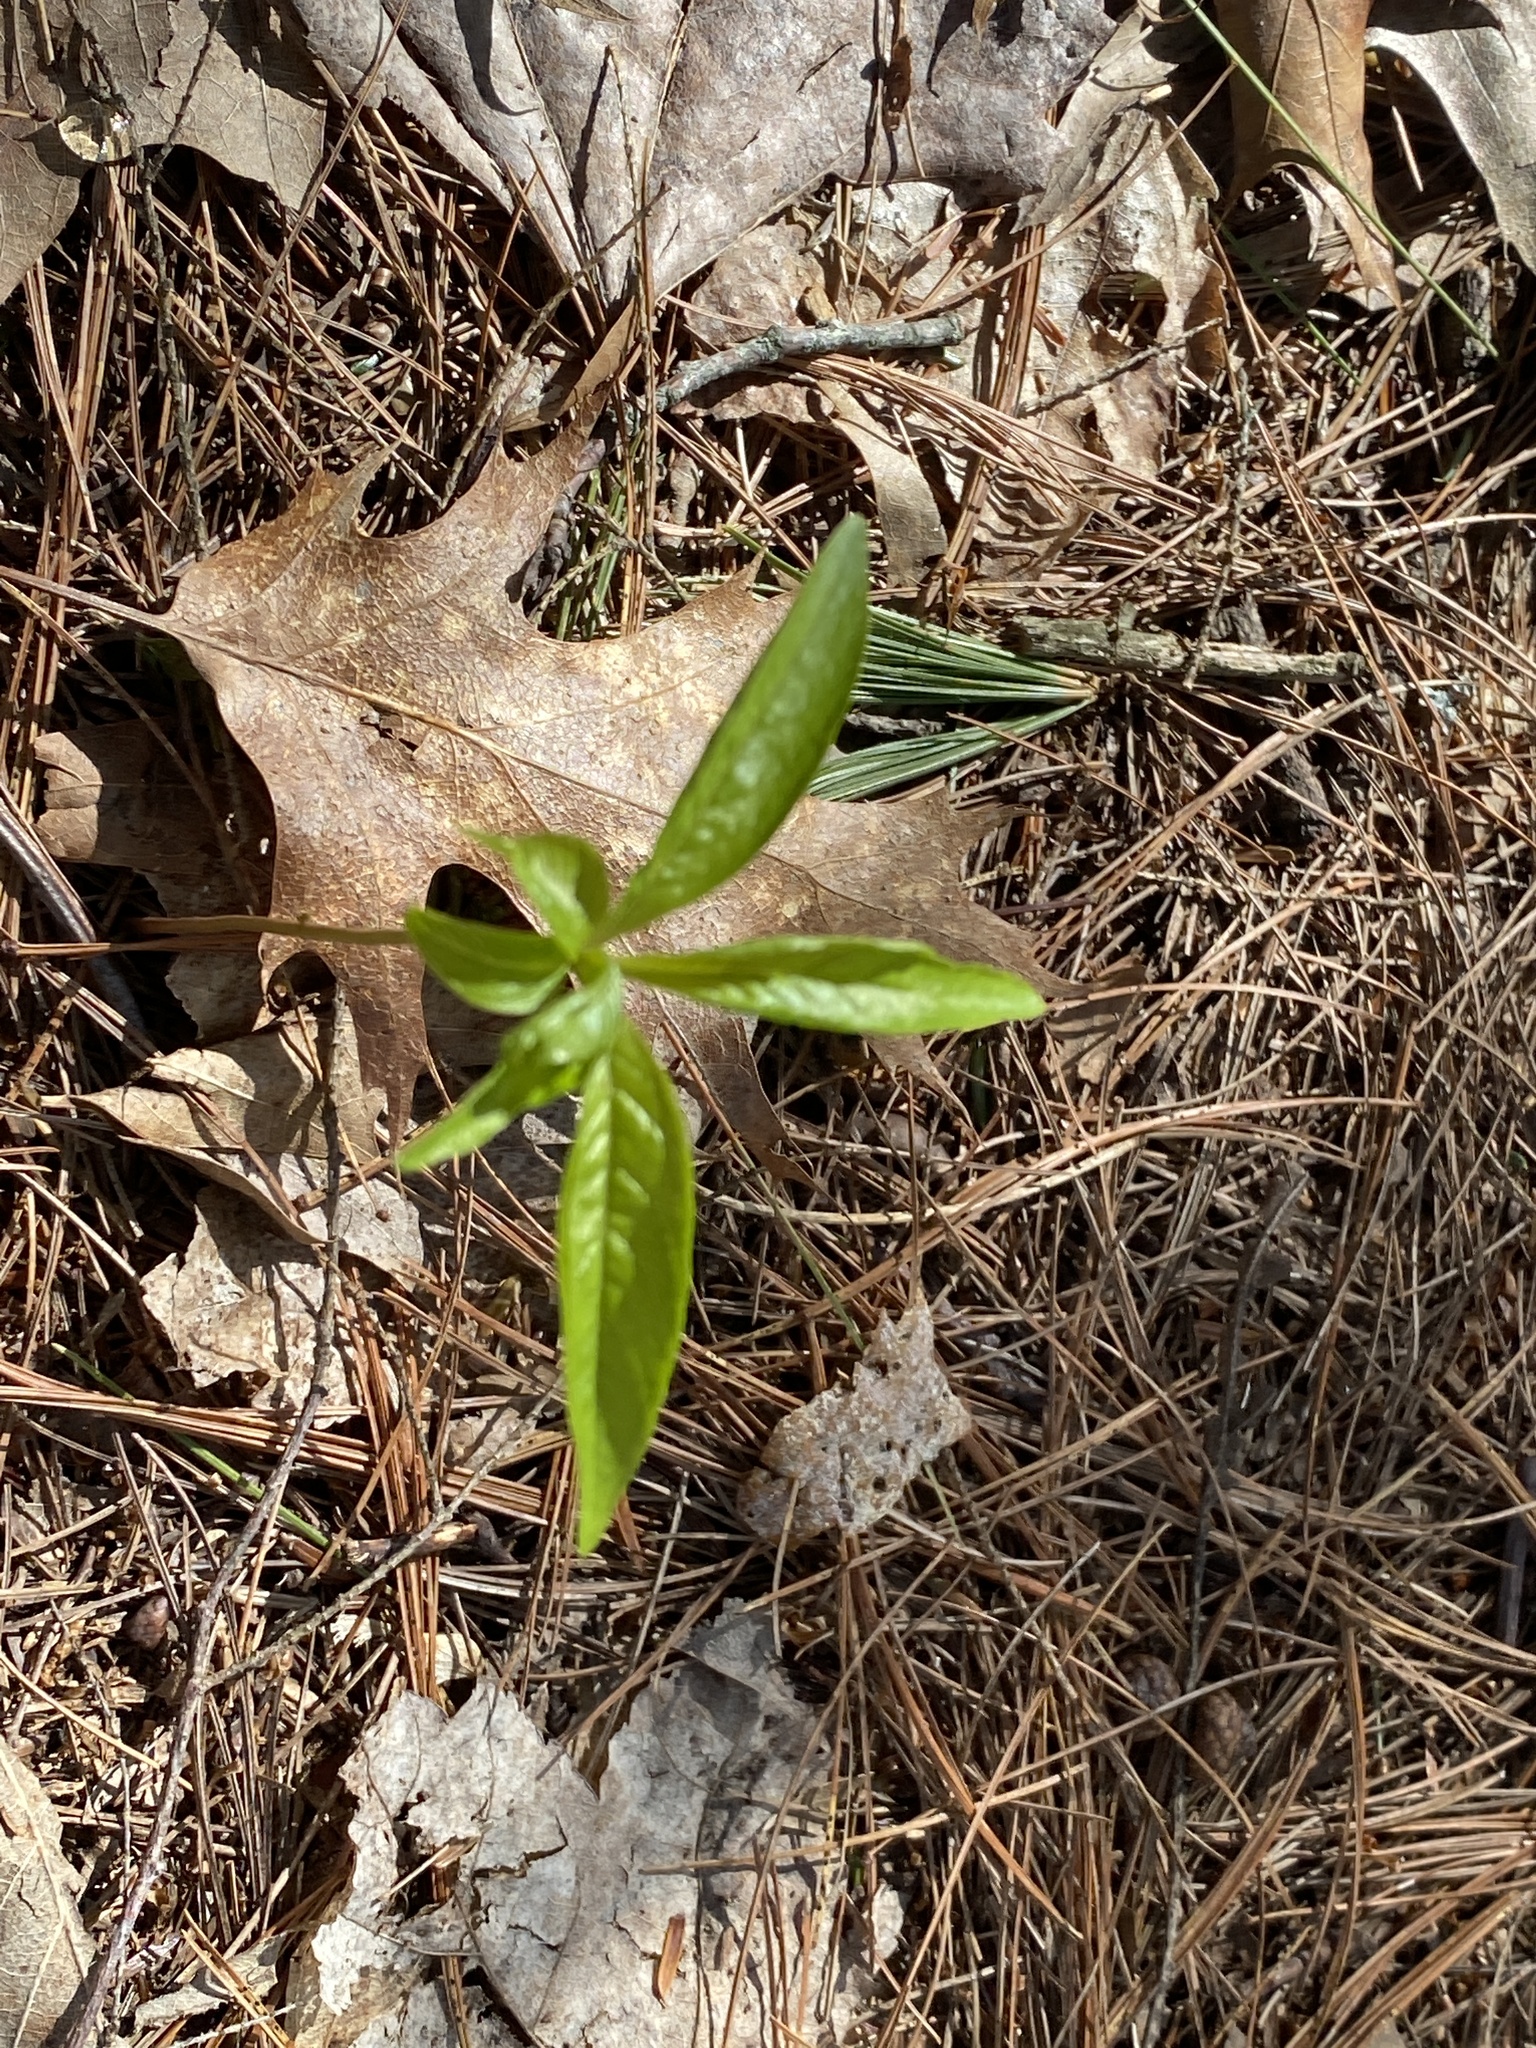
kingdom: Plantae
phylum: Tracheophyta
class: Magnoliopsida
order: Ericales
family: Primulaceae
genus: Lysimachia
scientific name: Lysimachia borealis
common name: American starflower
